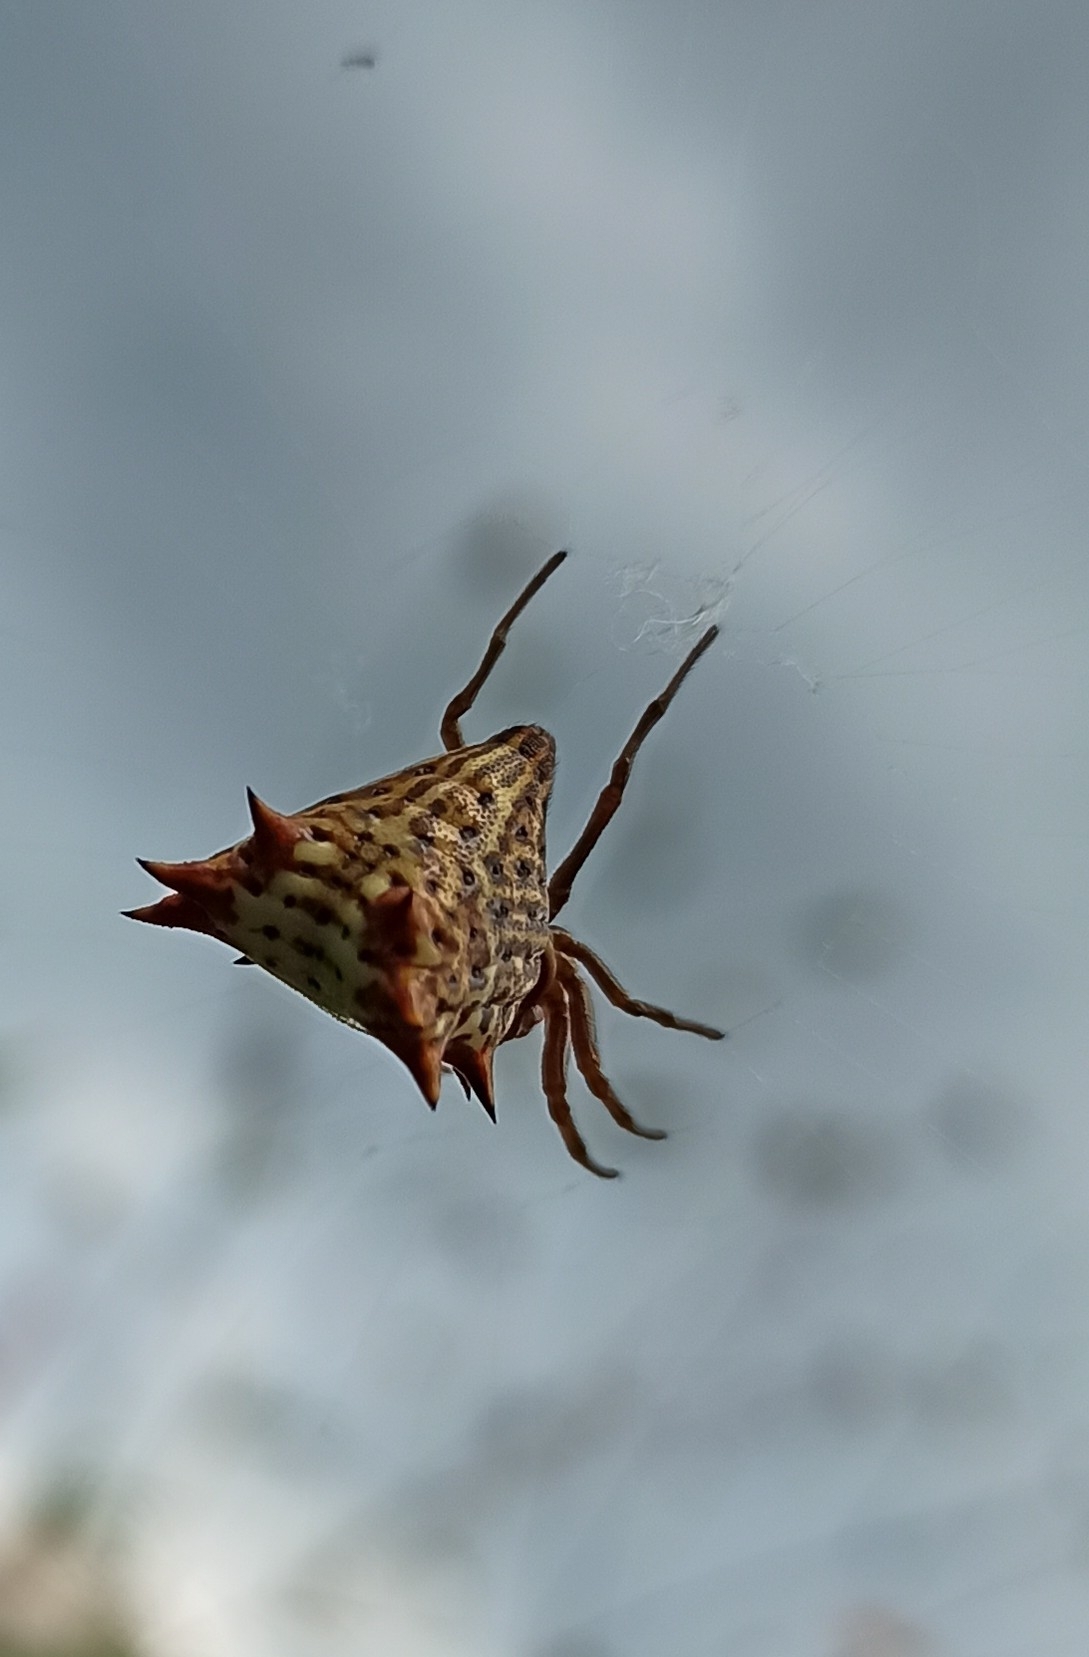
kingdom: Animalia
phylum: Arthropoda
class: Arachnida
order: Araneae
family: Araneidae
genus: Micrathena
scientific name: Micrathena gracilis
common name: Orb weavers
